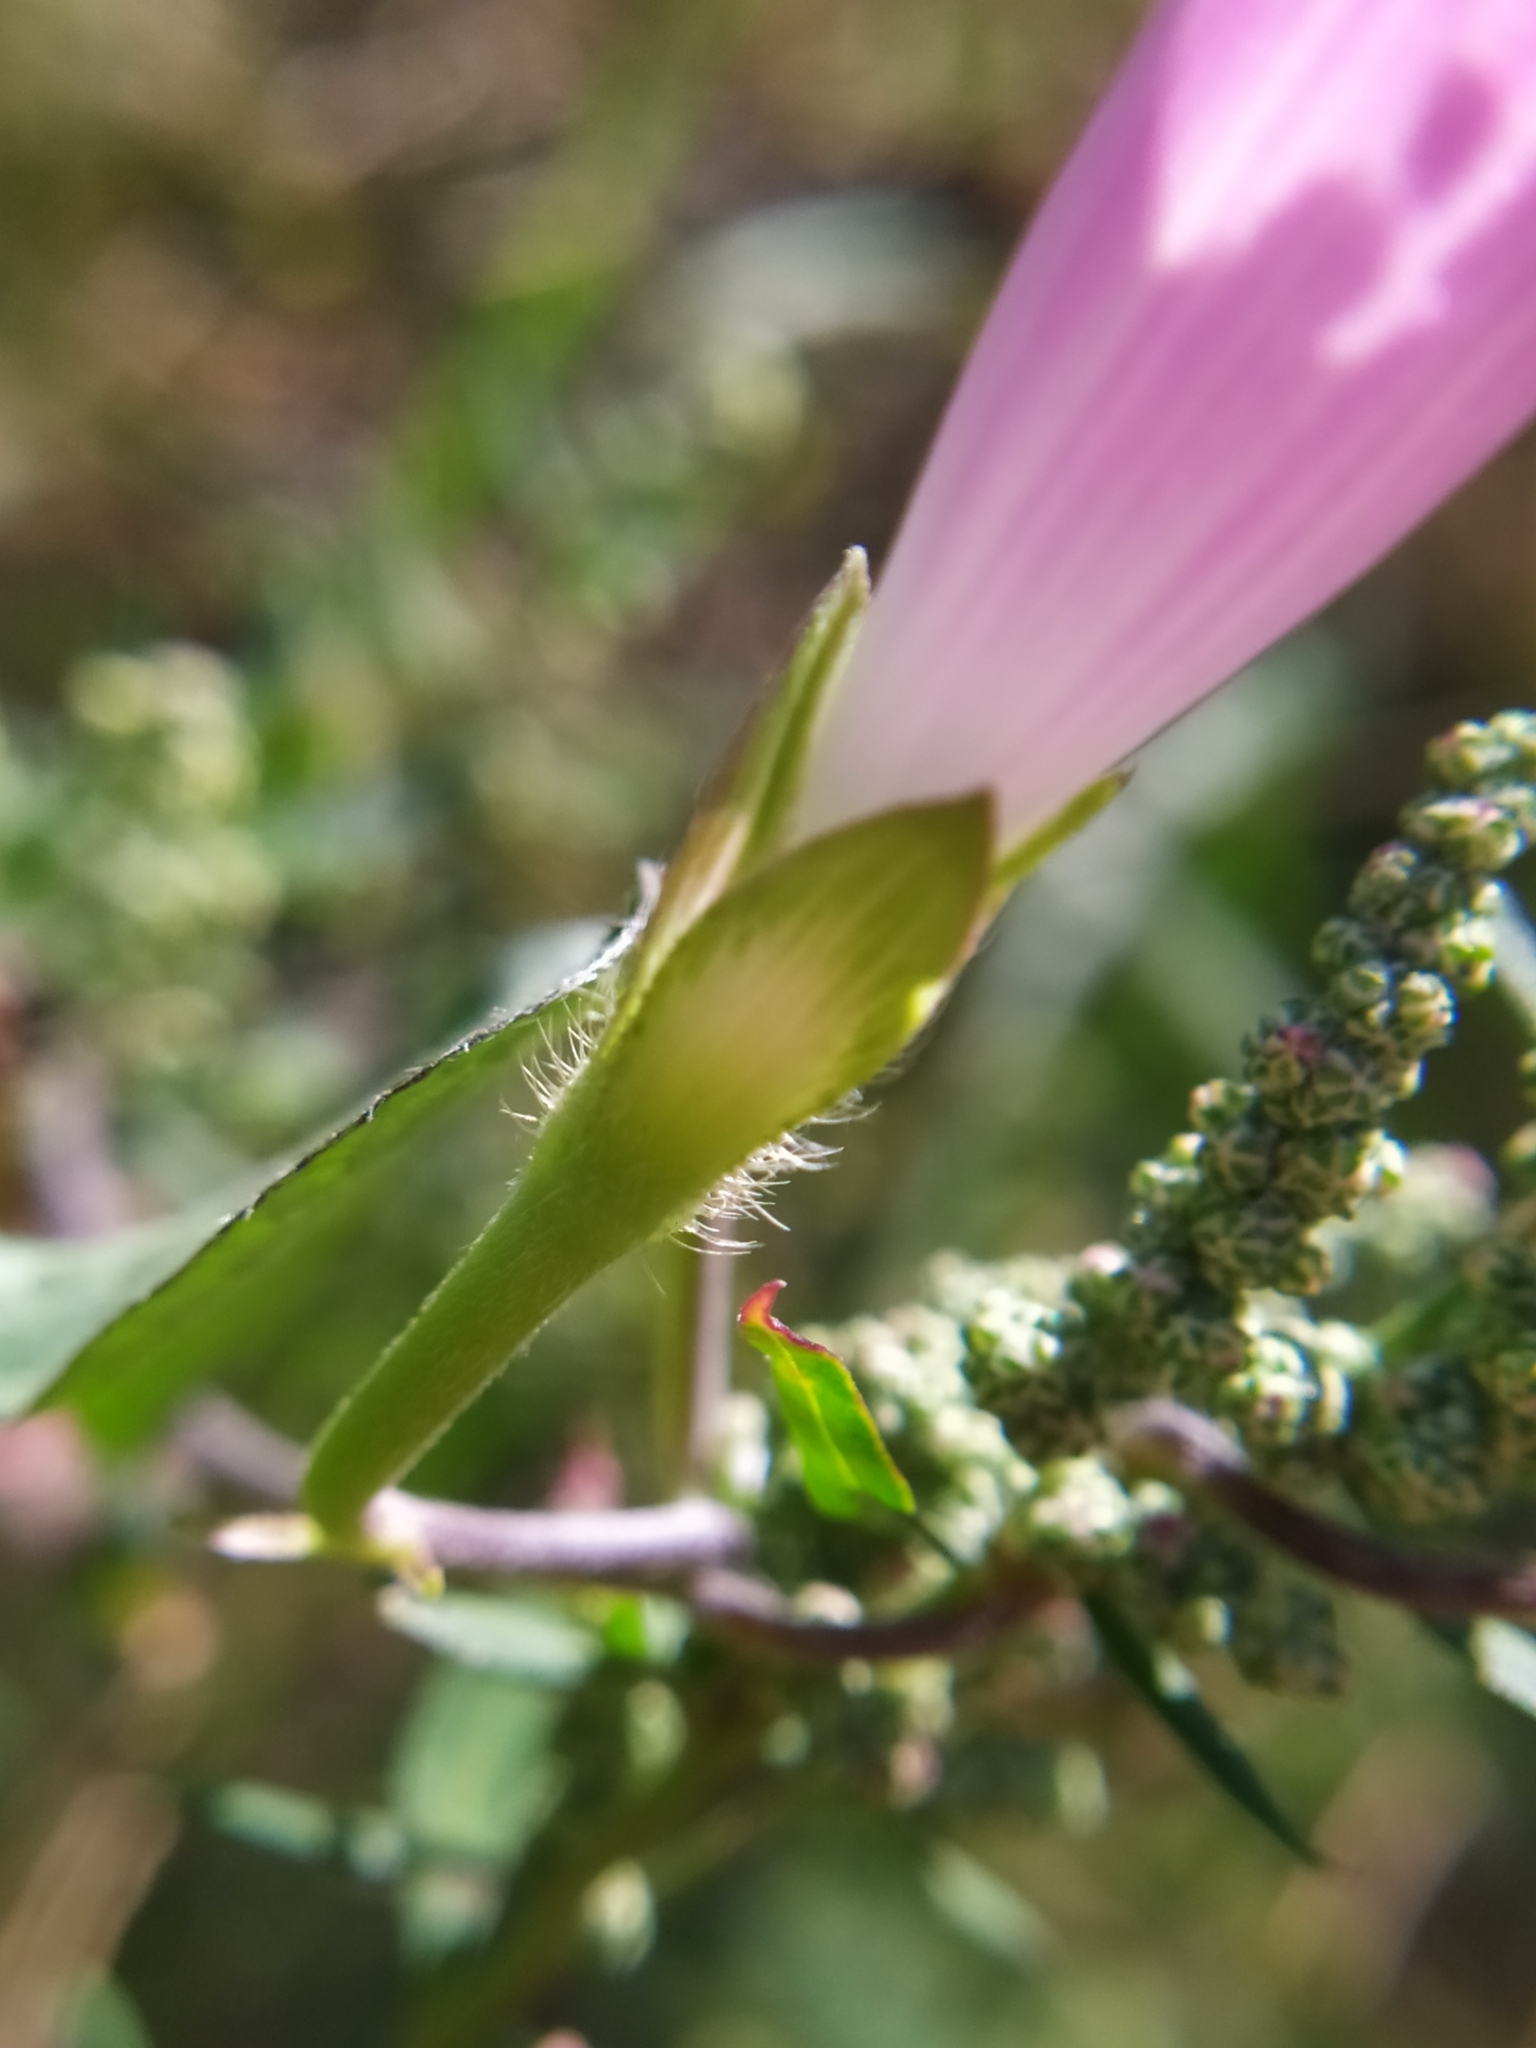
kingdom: Plantae
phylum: Tracheophyta
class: Magnoliopsida
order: Solanales
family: Convolvulaceae
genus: Ipomoea
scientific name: Ipomoea purpurea
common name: Common morning-glory
